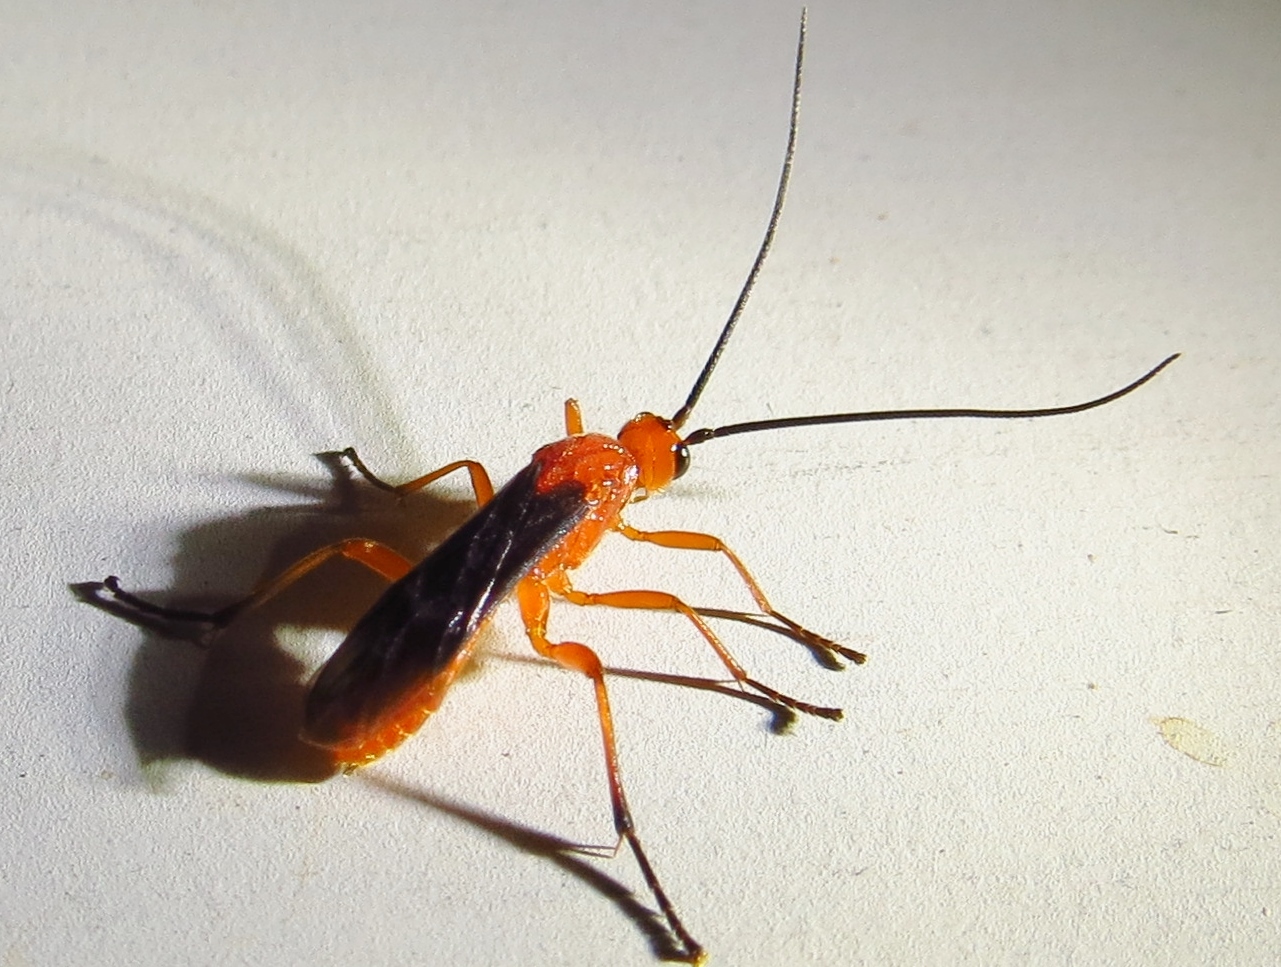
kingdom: Animalia
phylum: Arthropoda
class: Insecta
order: Hymenoptera
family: Braconidae
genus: Aleiodes
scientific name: Aleiodes politiceps
